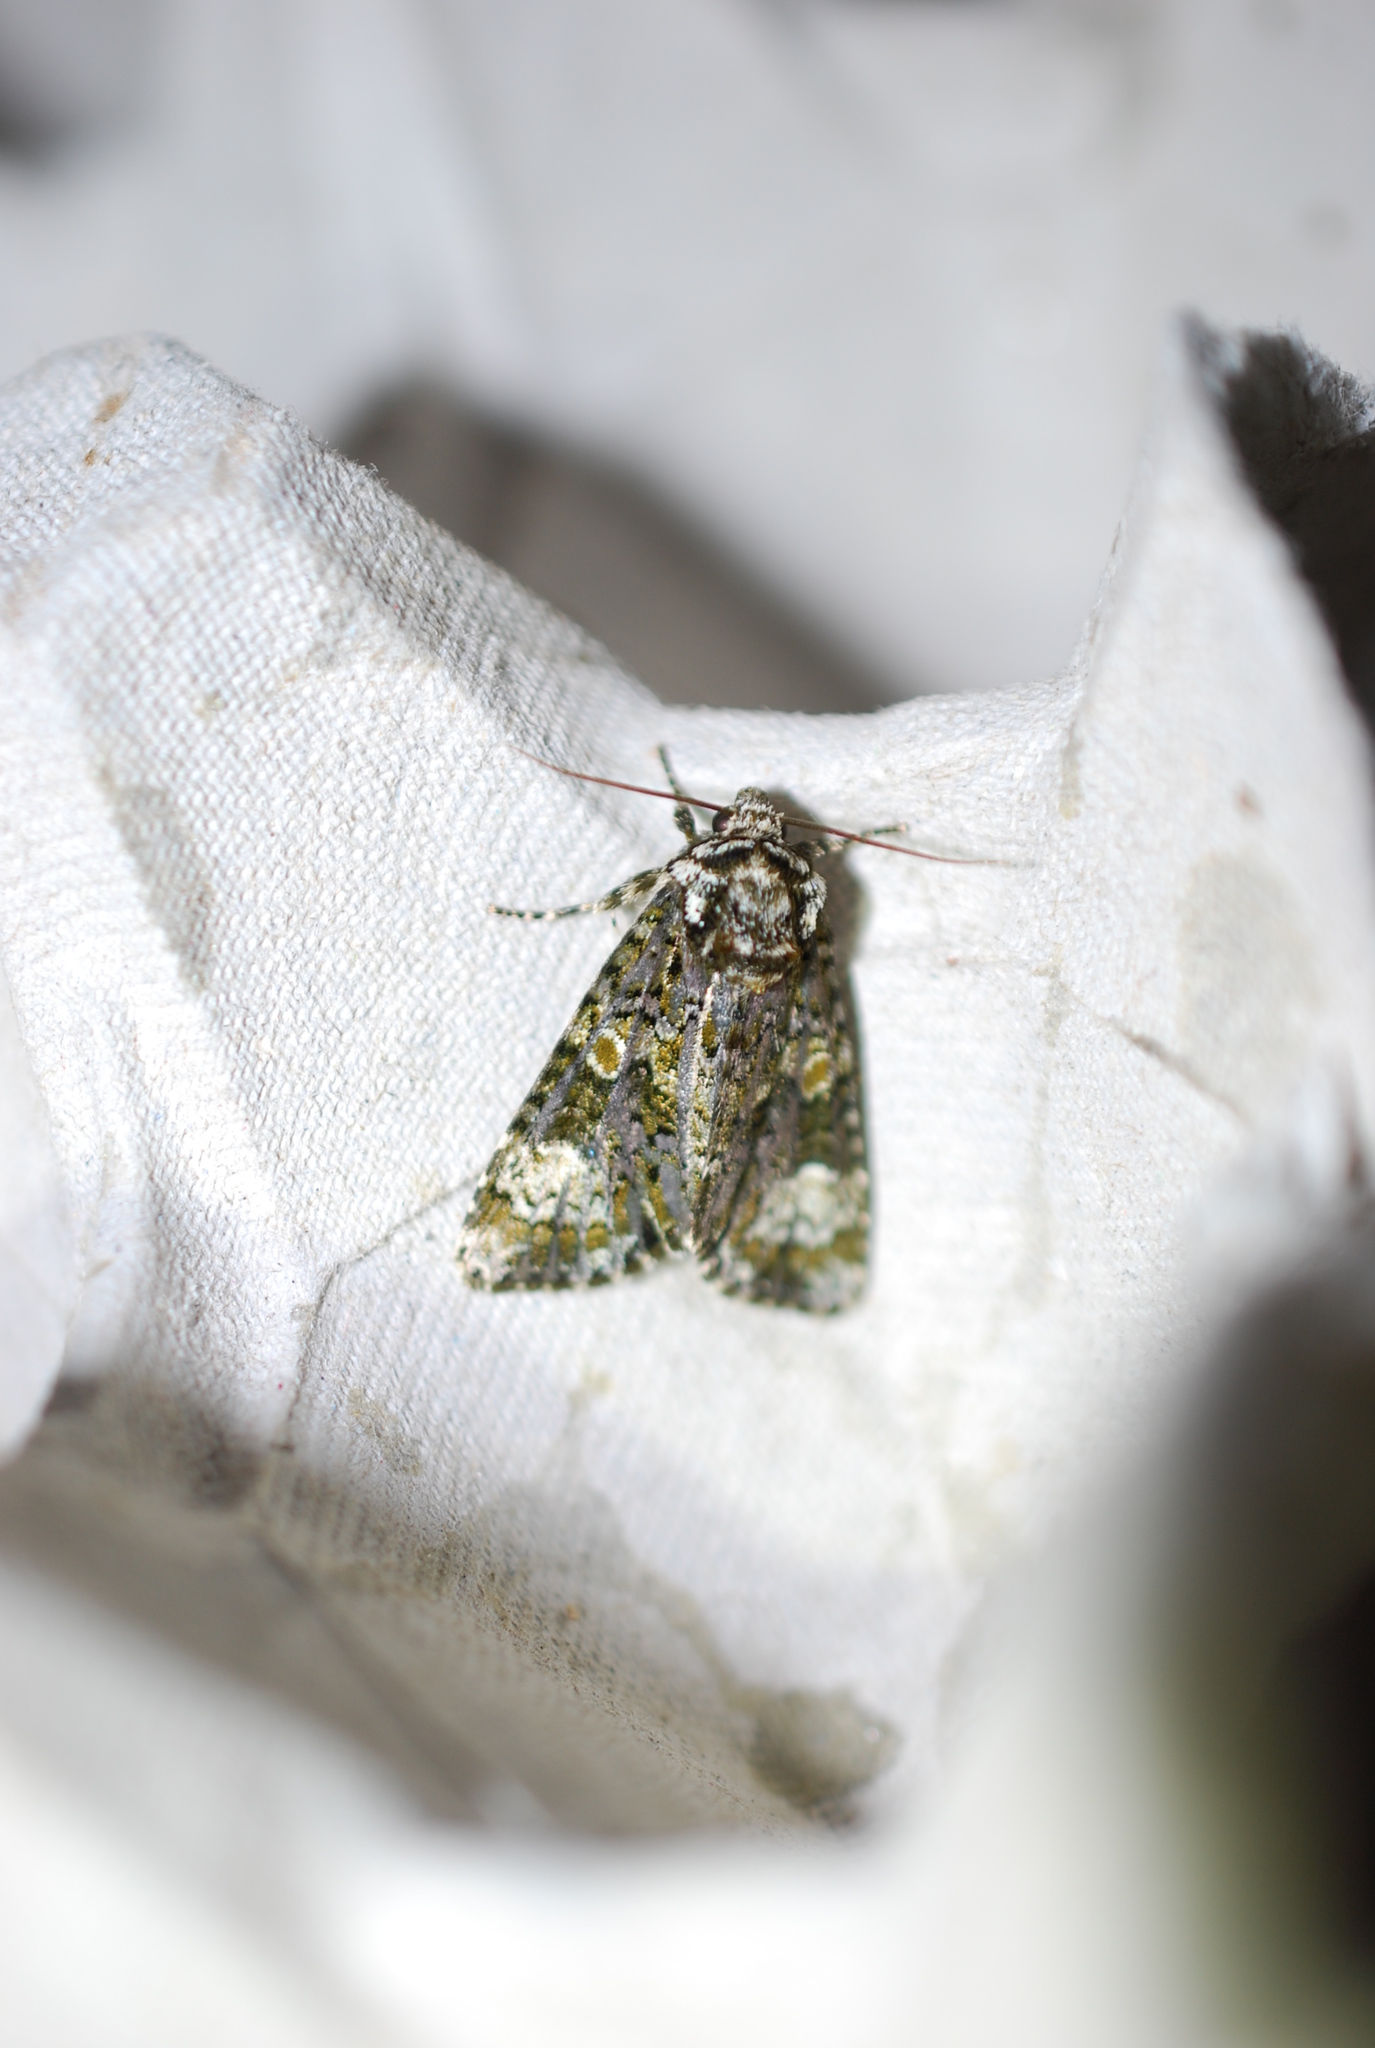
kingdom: Animalia
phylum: Arthropoda
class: Insecta
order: Lepidoptera
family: Noctuidae
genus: Craniophora
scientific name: Craniophora ligustri
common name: Coronet
